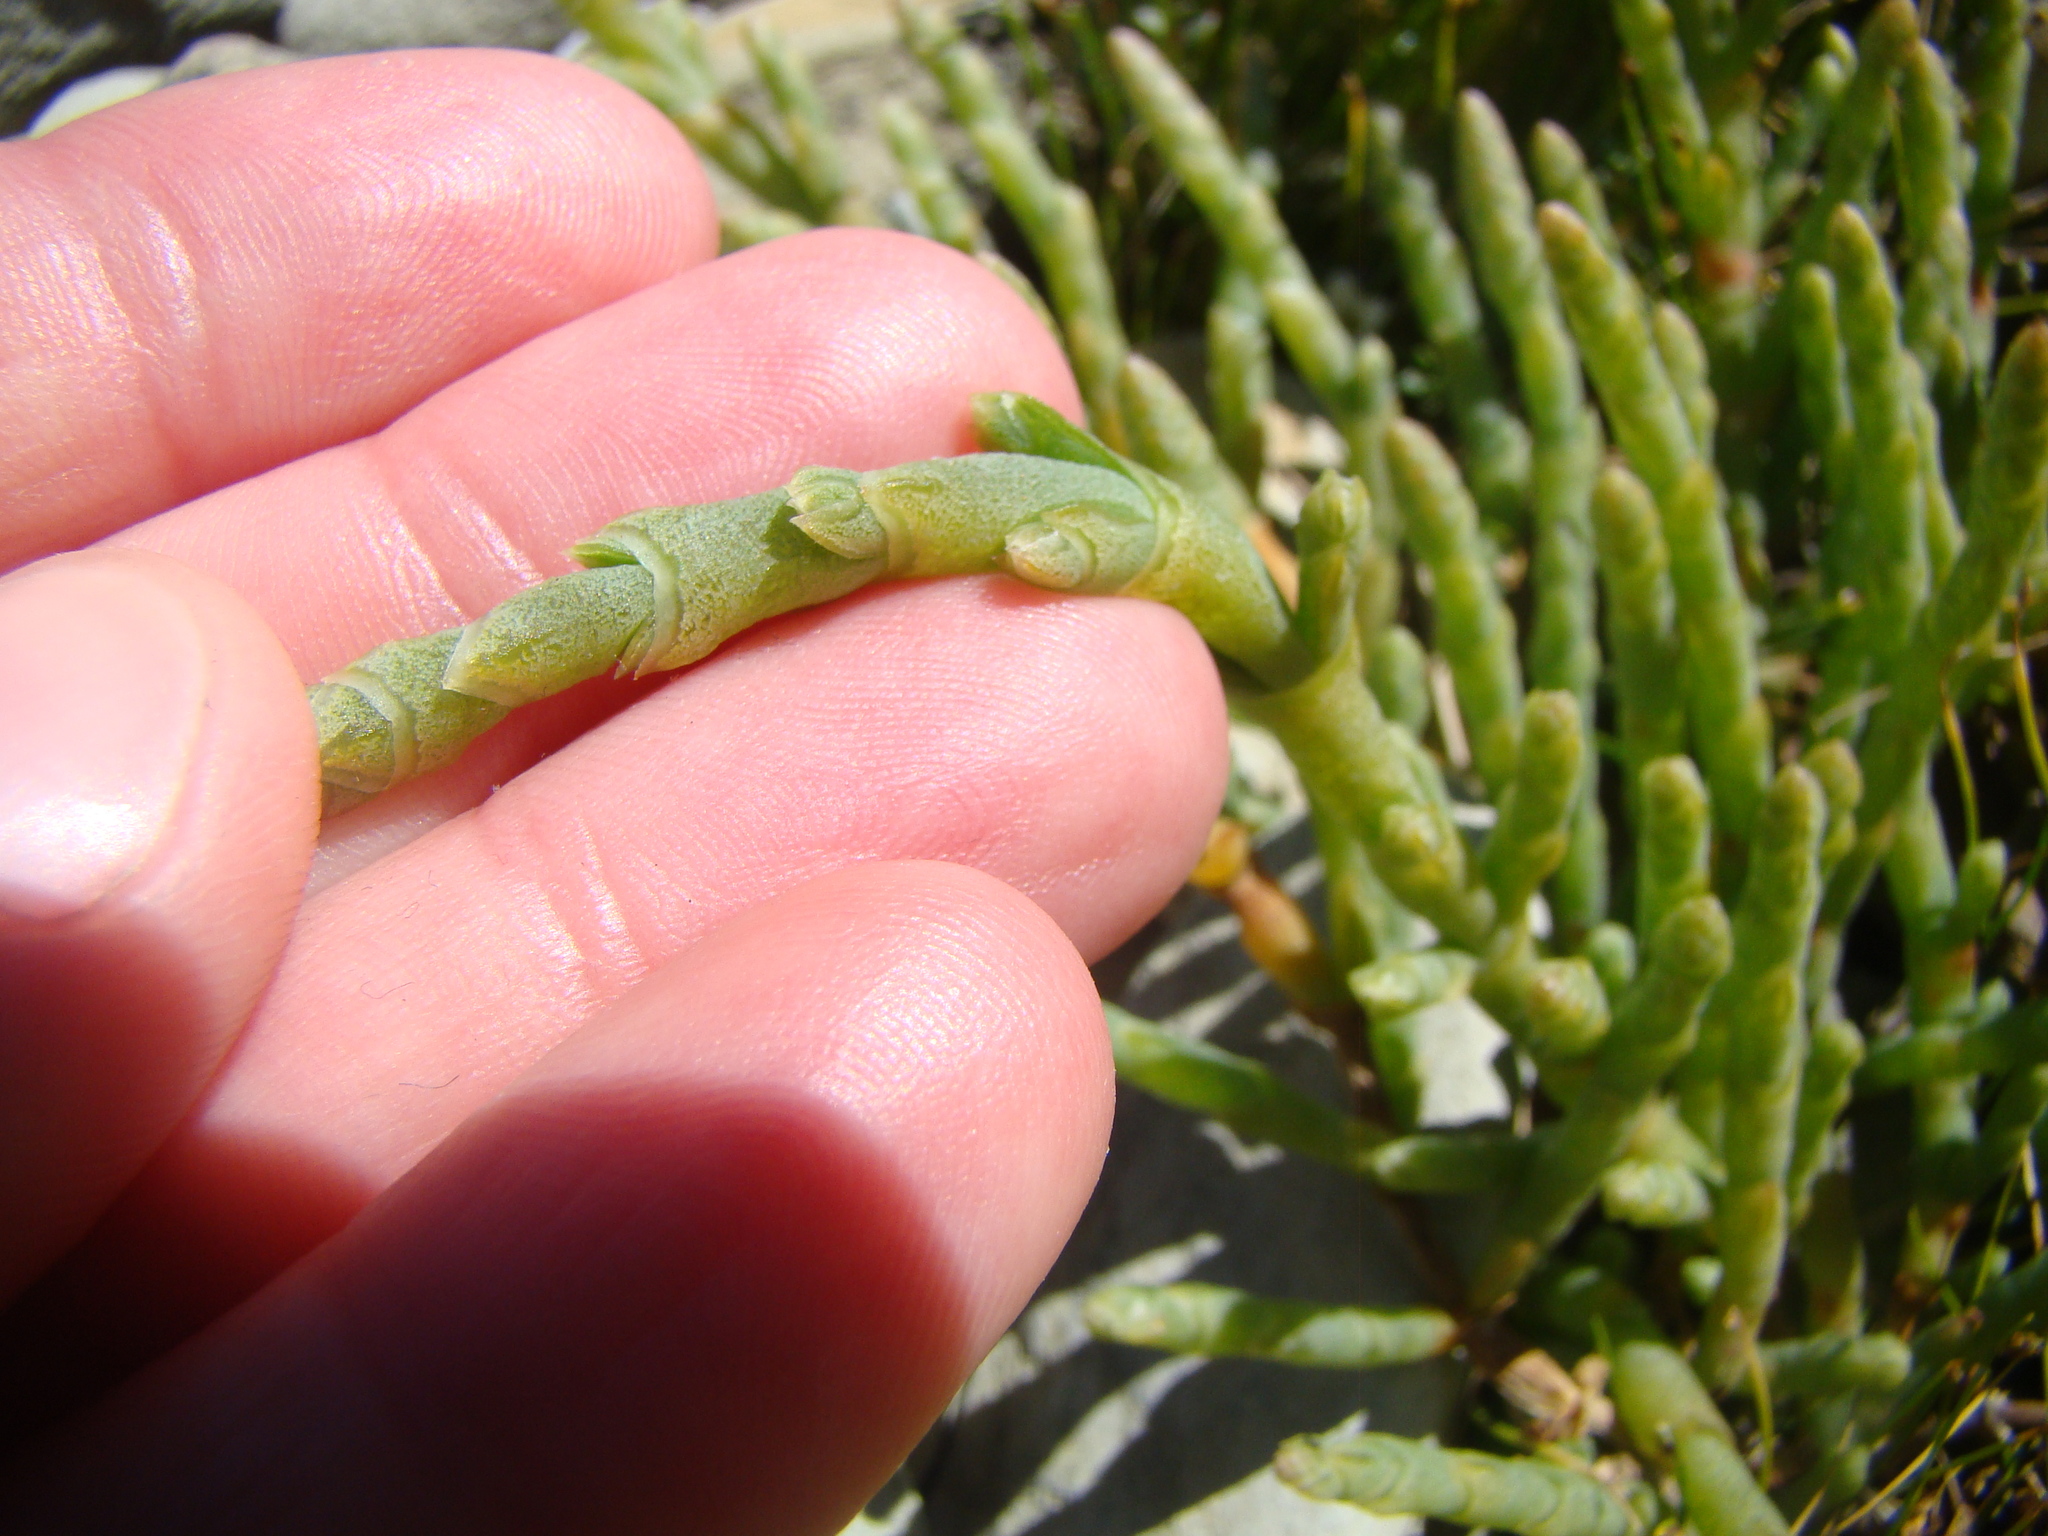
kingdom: Plantae
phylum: Tracheophyta
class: Magnoliopsida
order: Caryophyllales
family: Amaranthaceae
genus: Salicornia
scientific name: Salicornia quinqueflora
